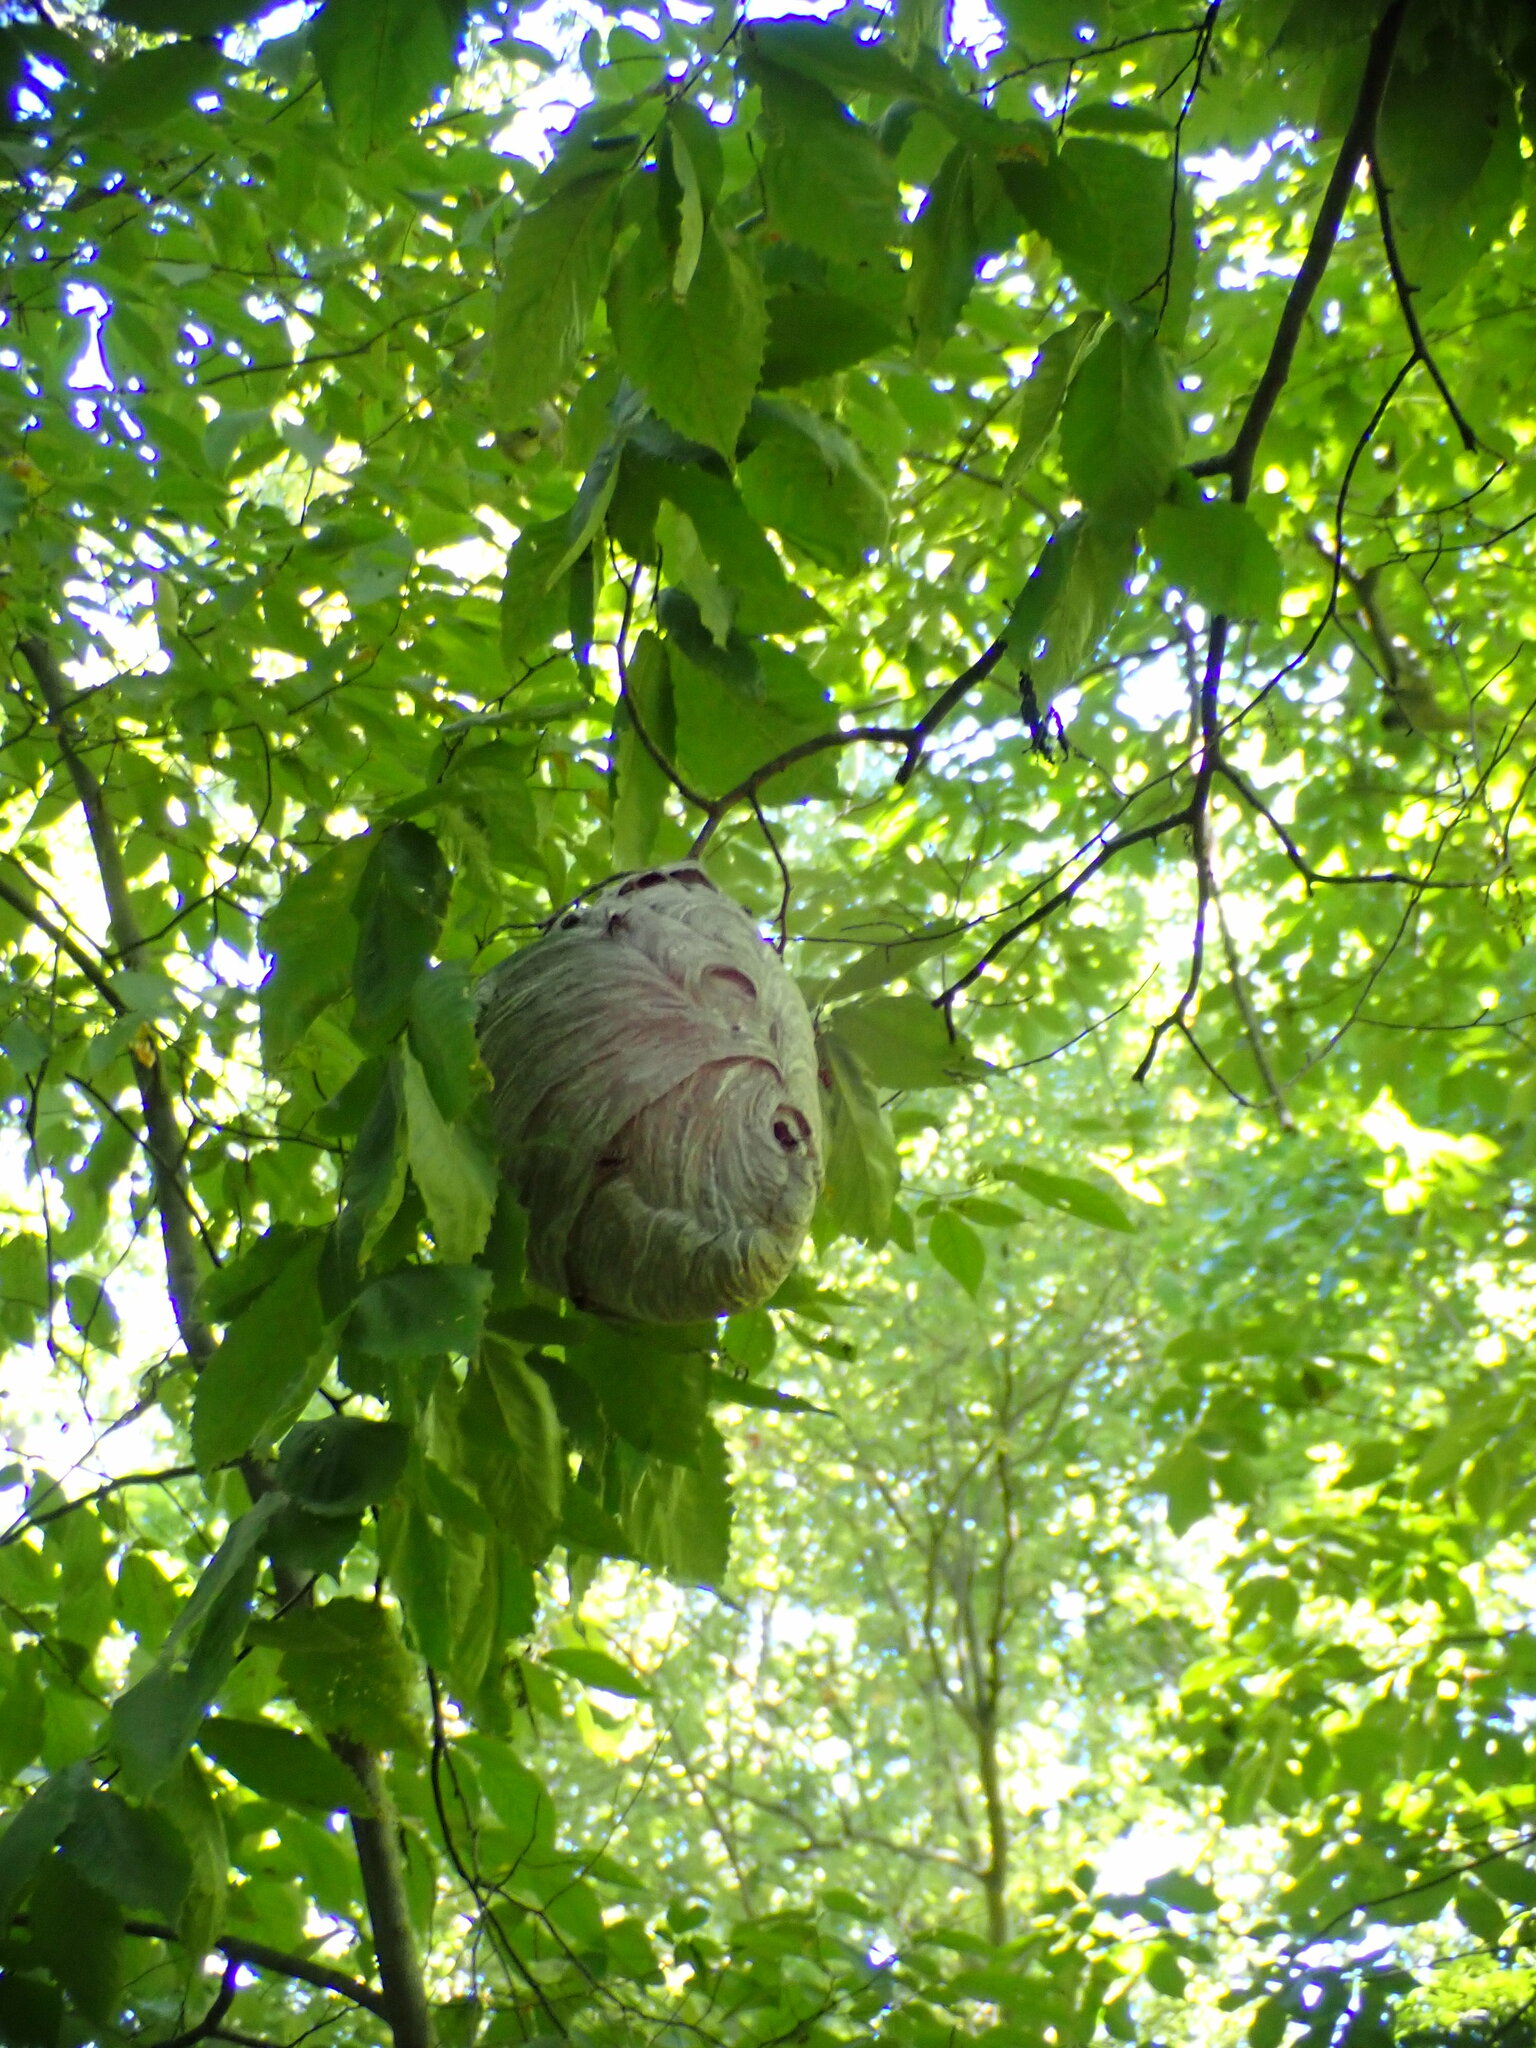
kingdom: Animalia
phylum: Arthropoda
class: Insecta
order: Hymenoptera
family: Vespidae
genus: Dolichovespula
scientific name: Dolichovespula maculata
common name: Bald-faced hornet
